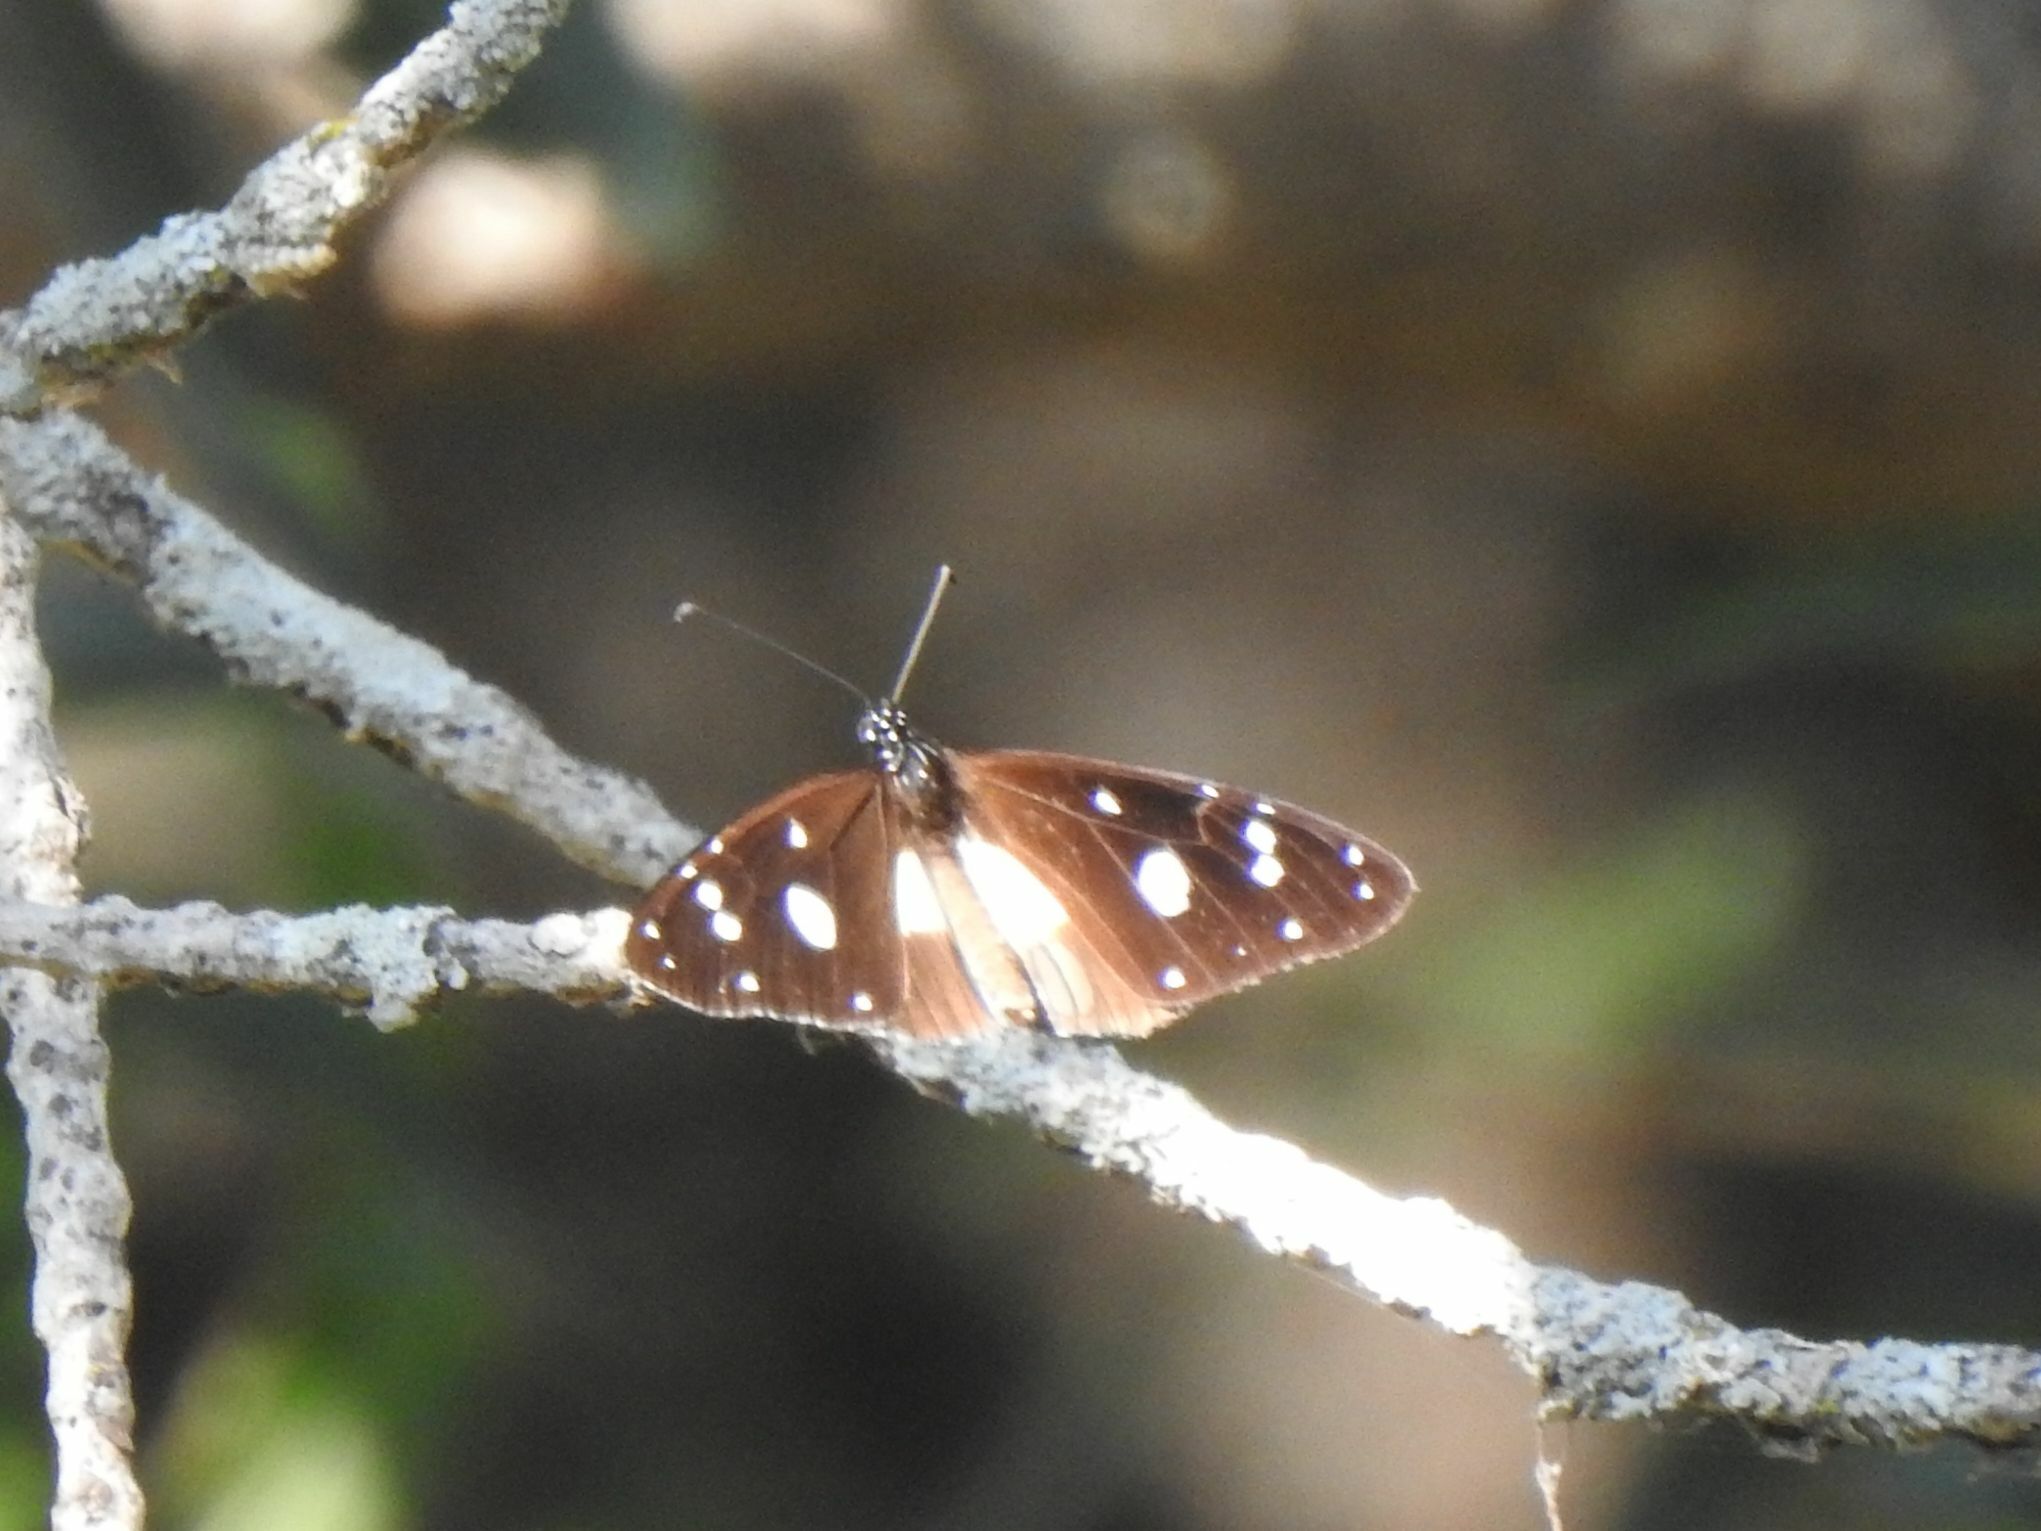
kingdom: Animalia
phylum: Arthropoda
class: Insecta
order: Lepidoptera
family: Nymphalidae
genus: Amauris
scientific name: Amauris albimaculata
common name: Layman
